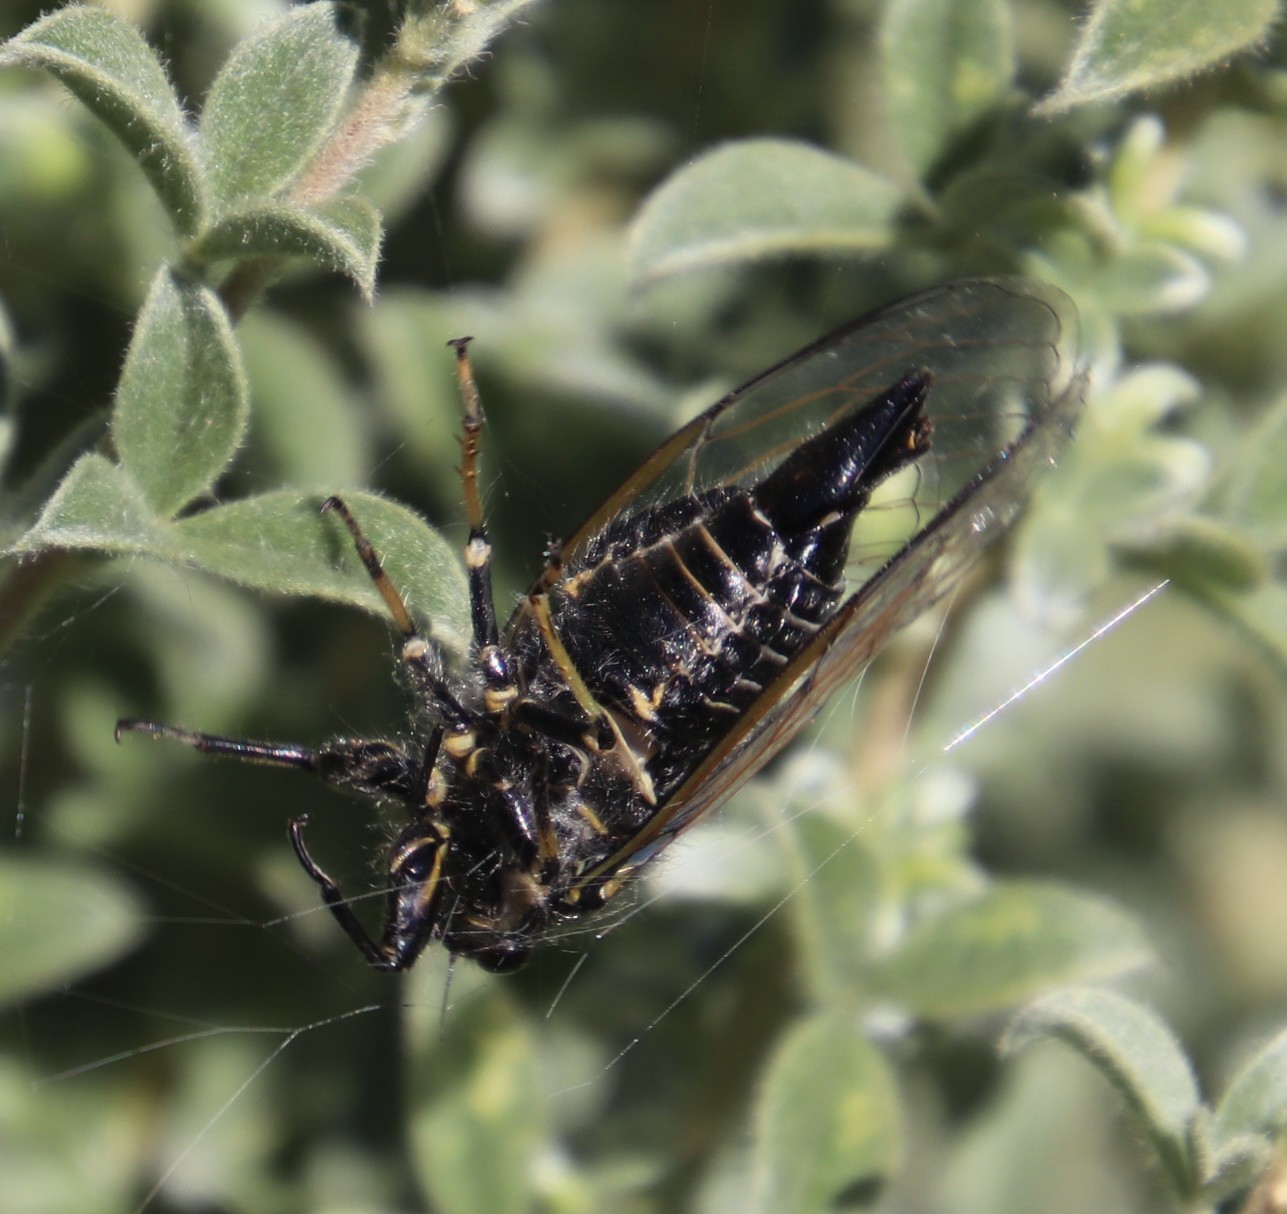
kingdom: Animalia
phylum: Arthropoda
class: Insecta
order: Hemiptera
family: Cicadidae
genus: Quintilia
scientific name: Quintilia
